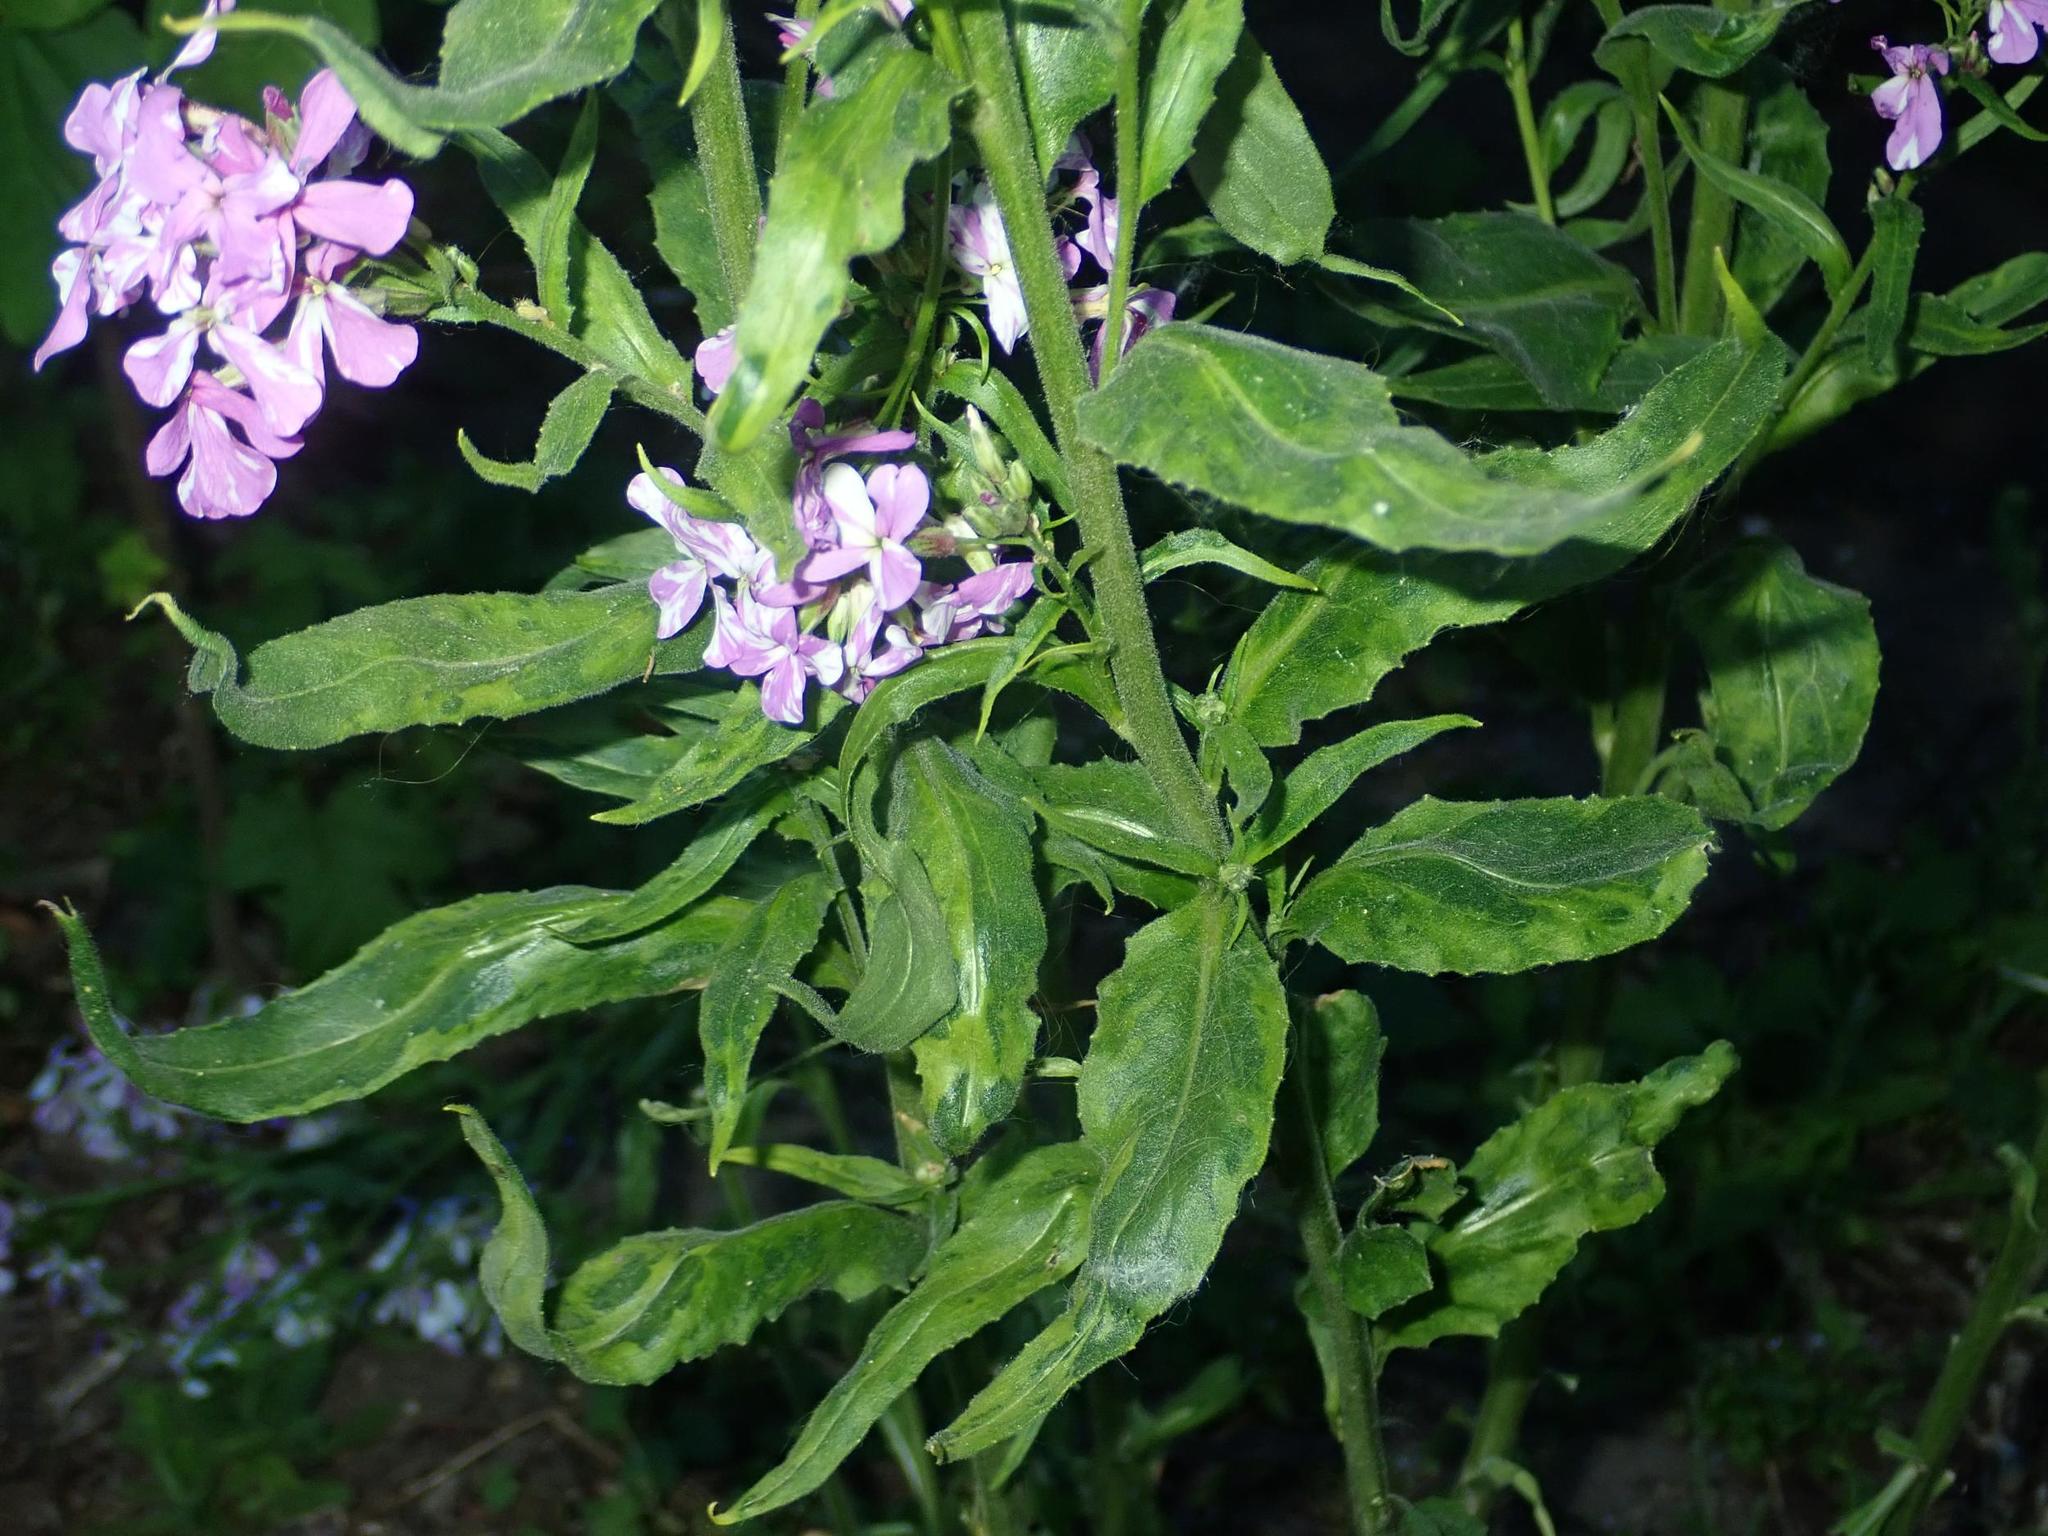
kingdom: Plantae
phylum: Tracheophyta
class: Magnoliopsida
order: Brassicales
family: Brassicaceae
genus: Hesperis
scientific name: Hesperis matronalis
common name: Dame's-violet
